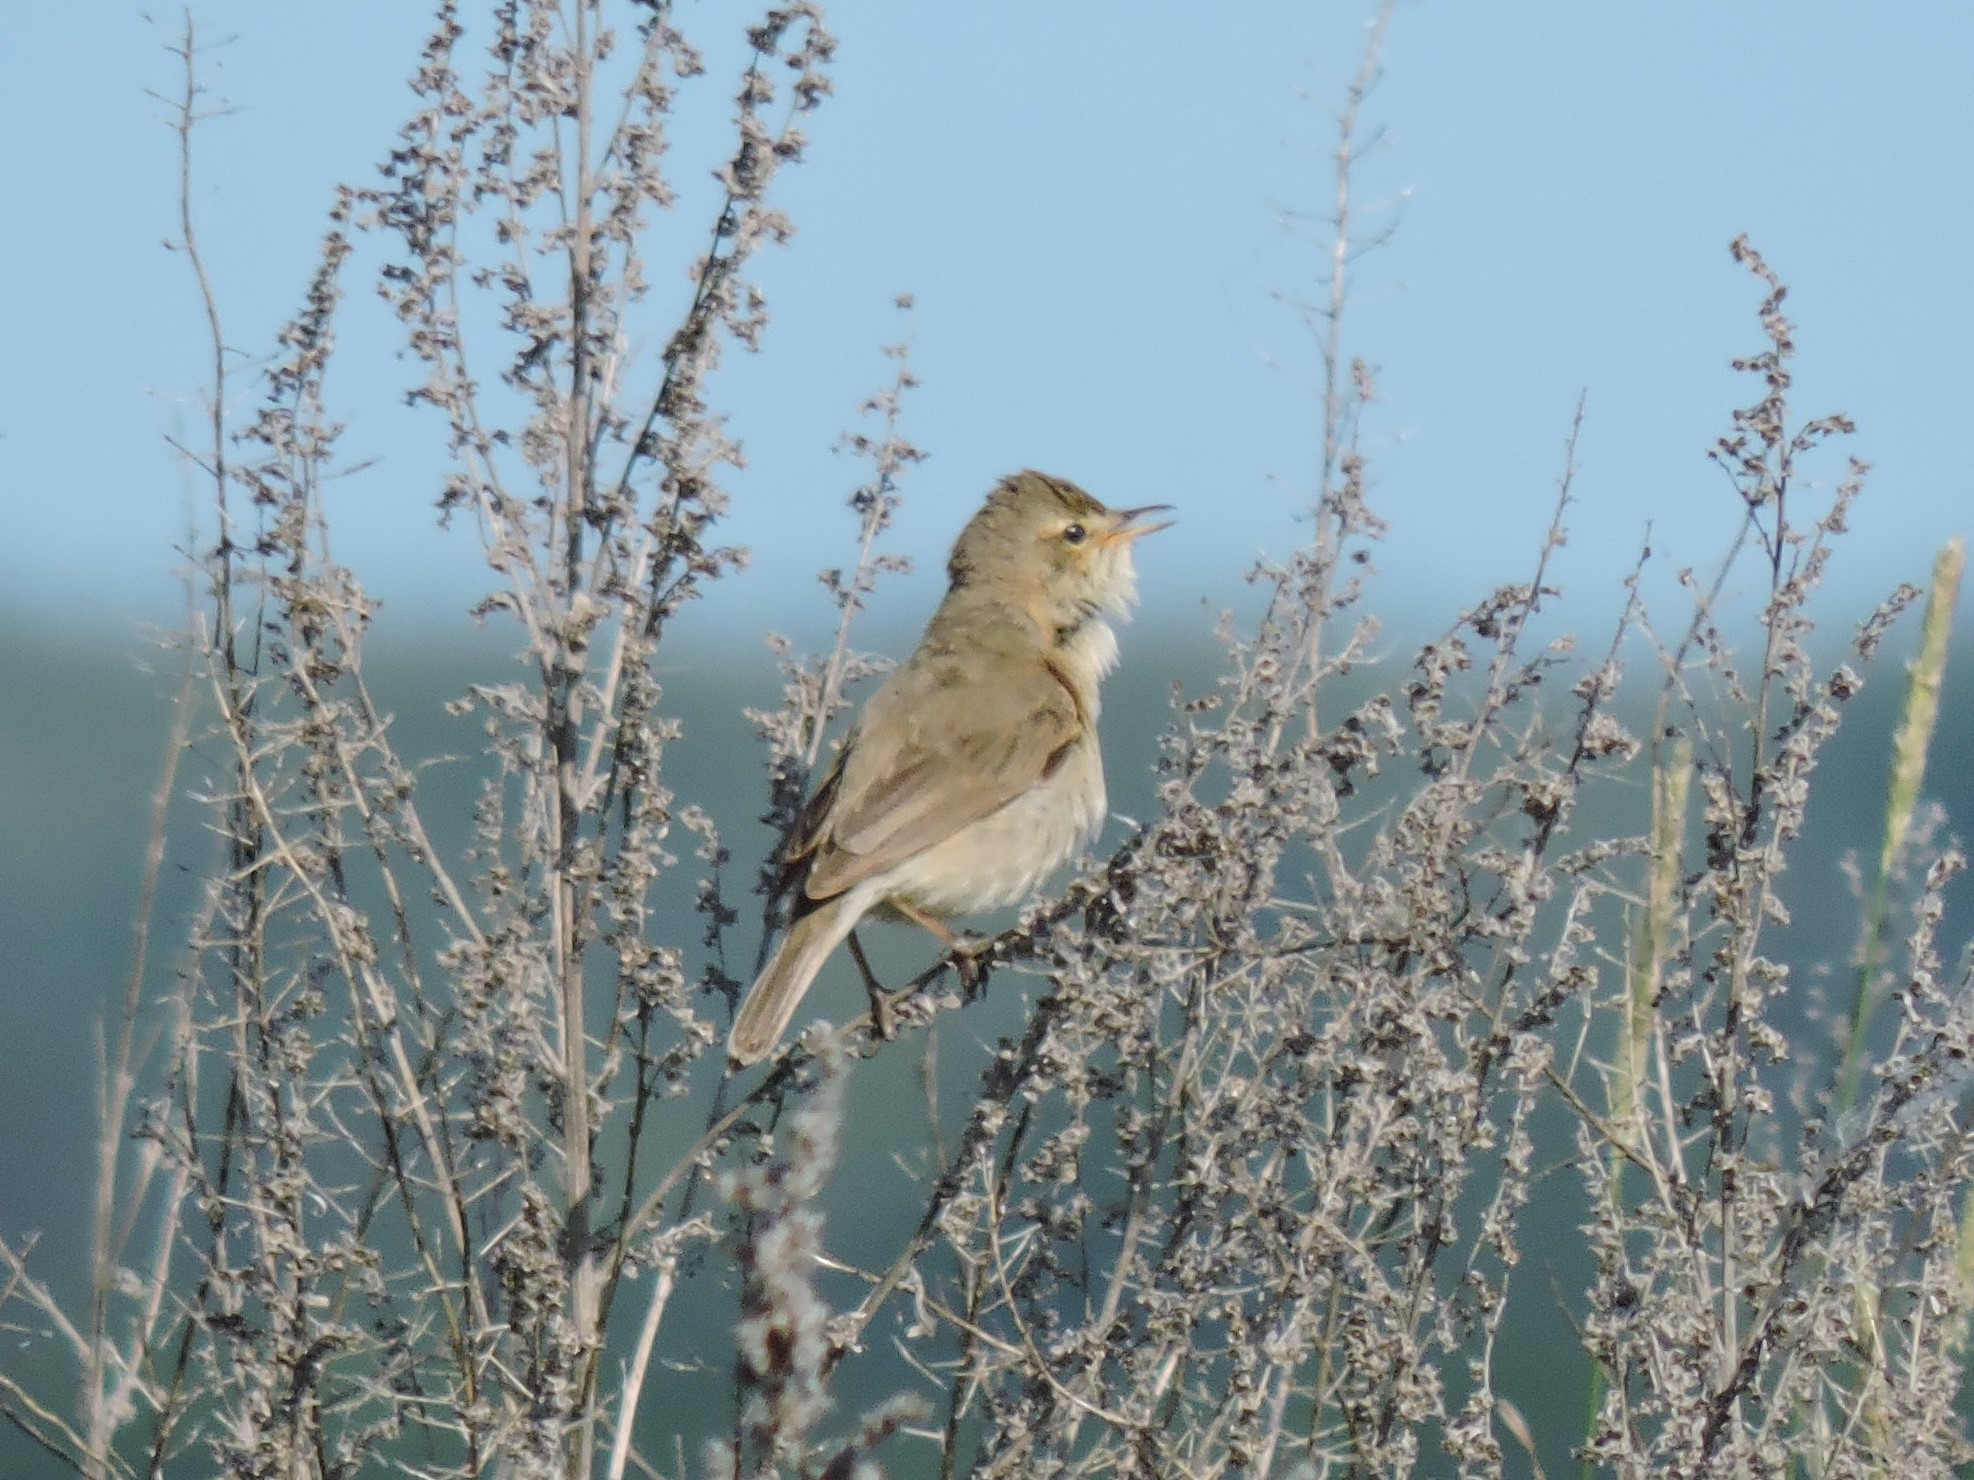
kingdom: Animalia
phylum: Chordata
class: Aves
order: Passeriformes
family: Acrocephalidae
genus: Iduna
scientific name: Iduna caligata
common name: Booted warbler
